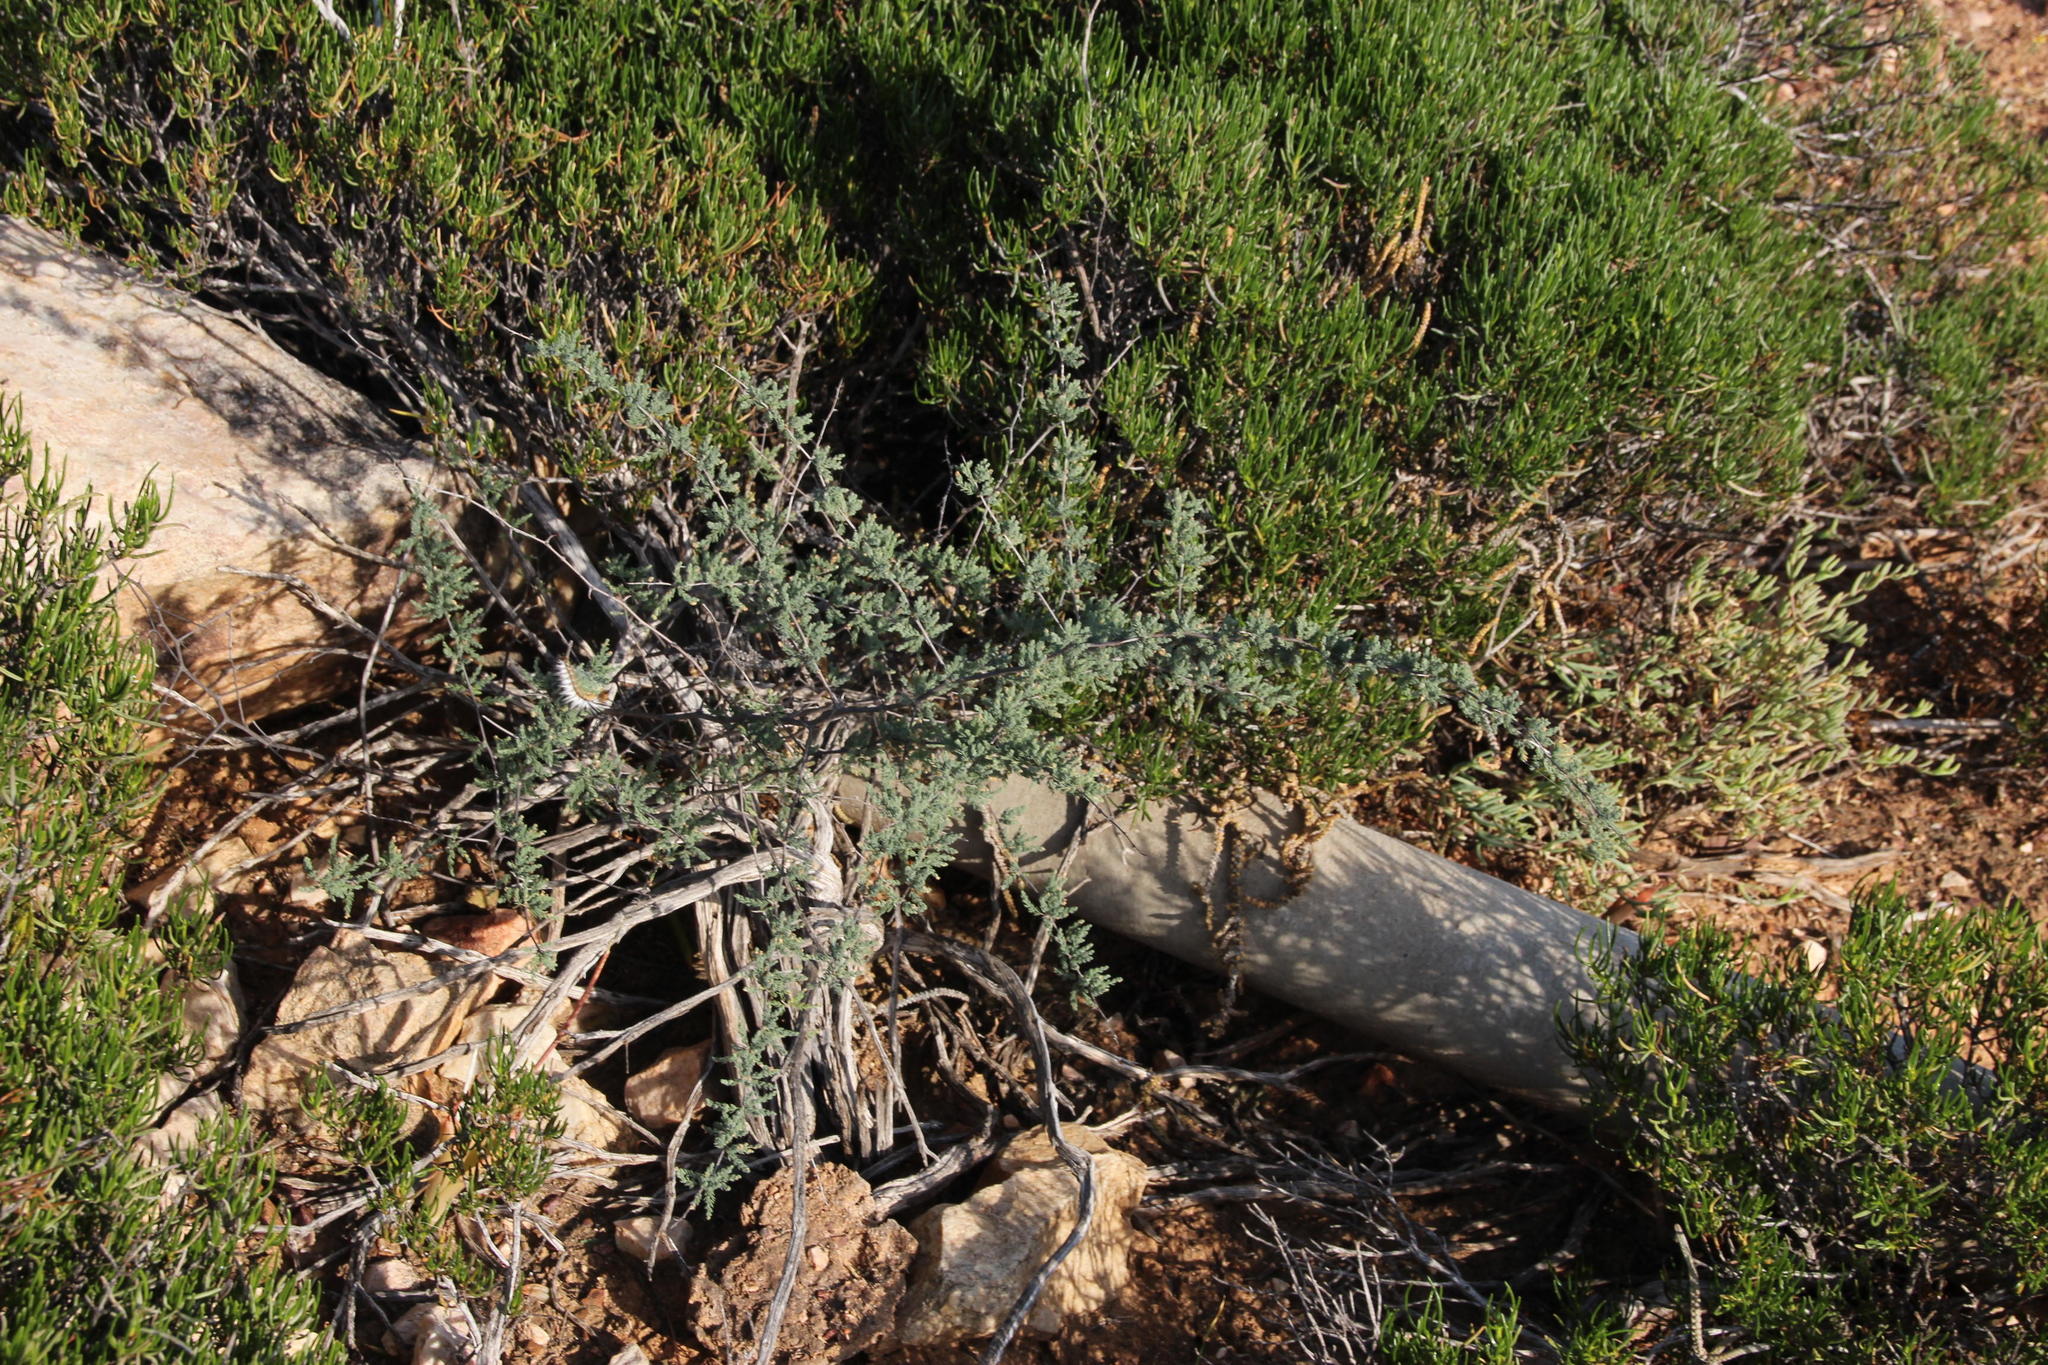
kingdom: Plantae
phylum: Tracheophyta
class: Liliopsida
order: Asparagales
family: Asparagaceae
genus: Asparagus
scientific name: Asparagus capensis
